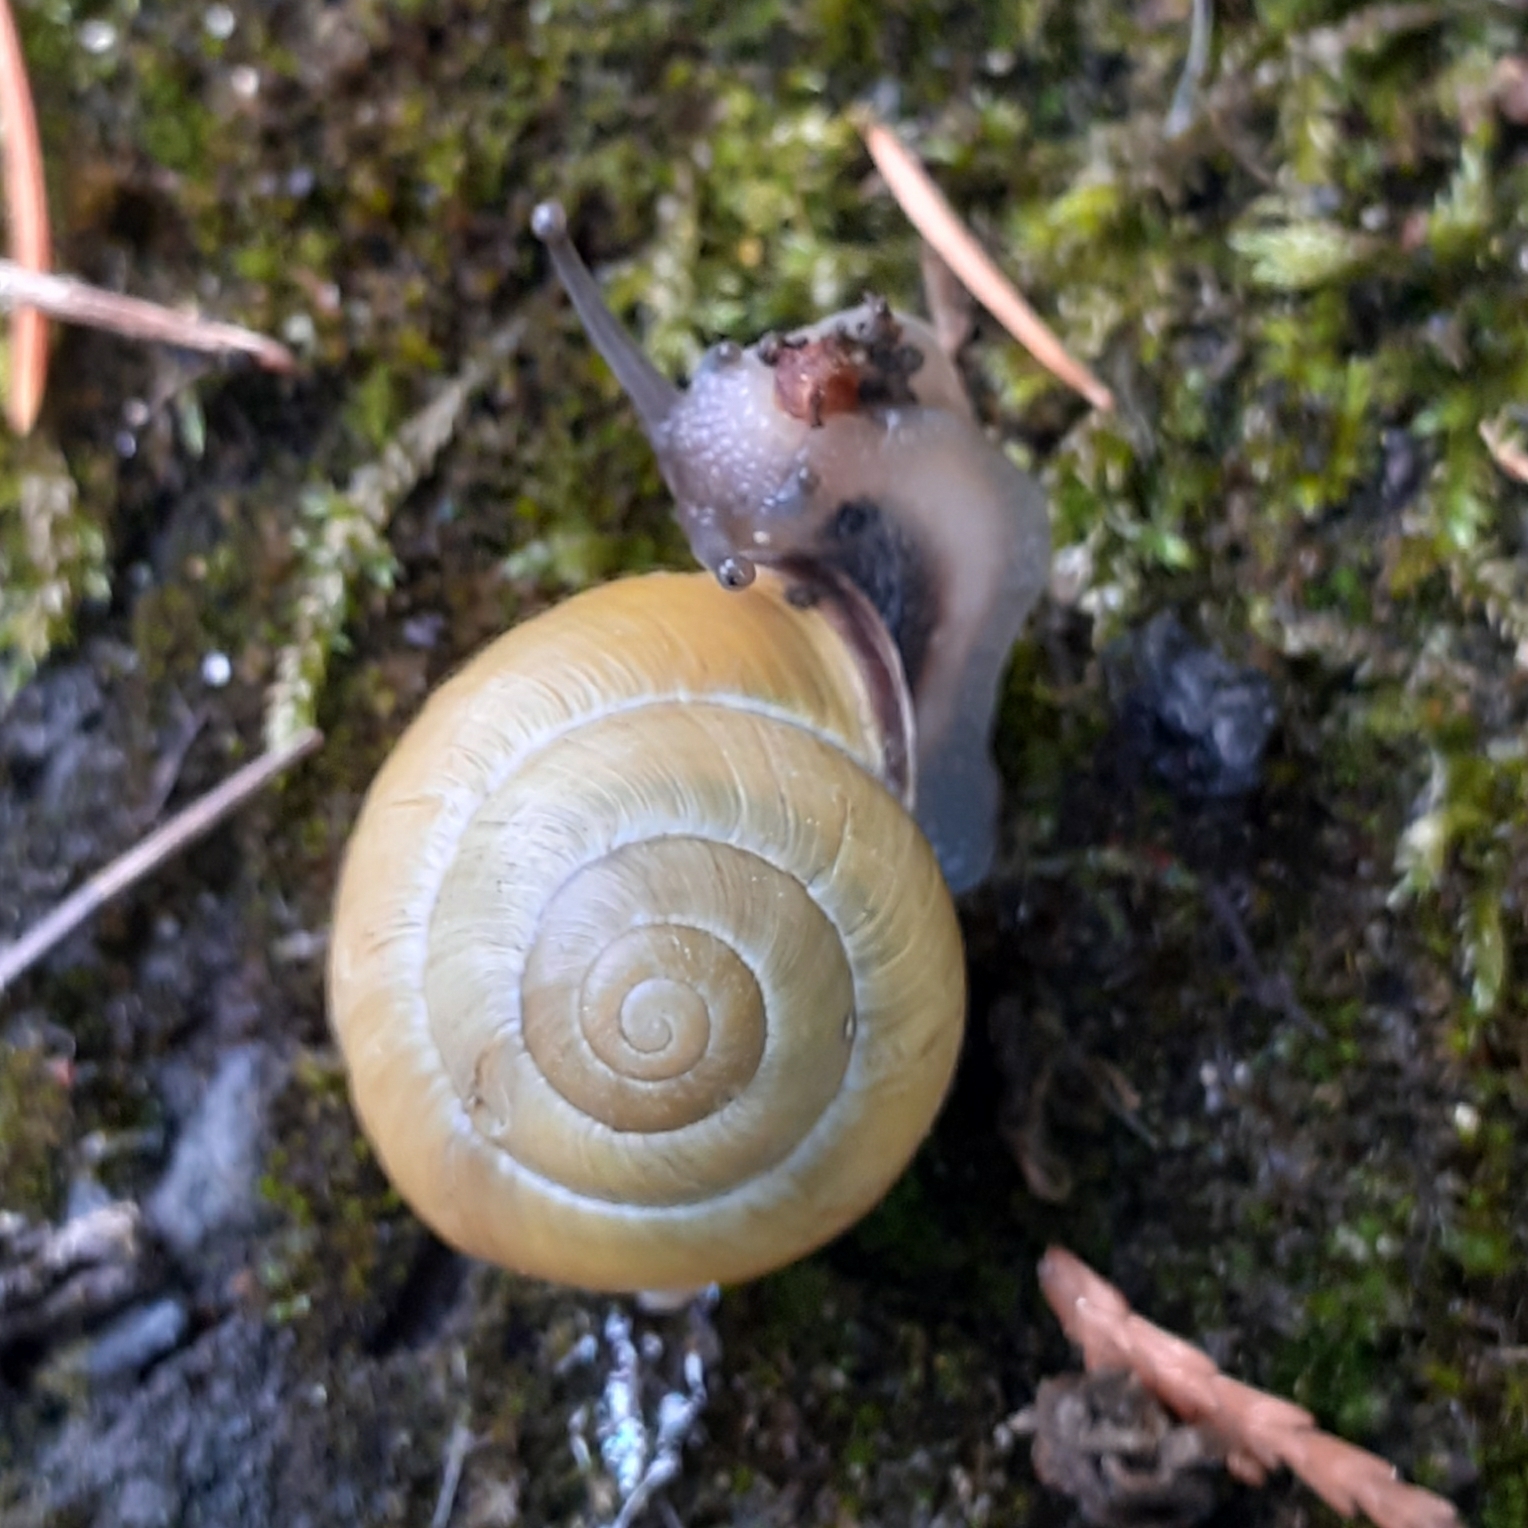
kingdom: Animalia
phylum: Mollusca
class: Gastropoda
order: Stylommatophora
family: Helicidae
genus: Cepaea
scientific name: Cepaea nemoralis
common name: Grovesnail
